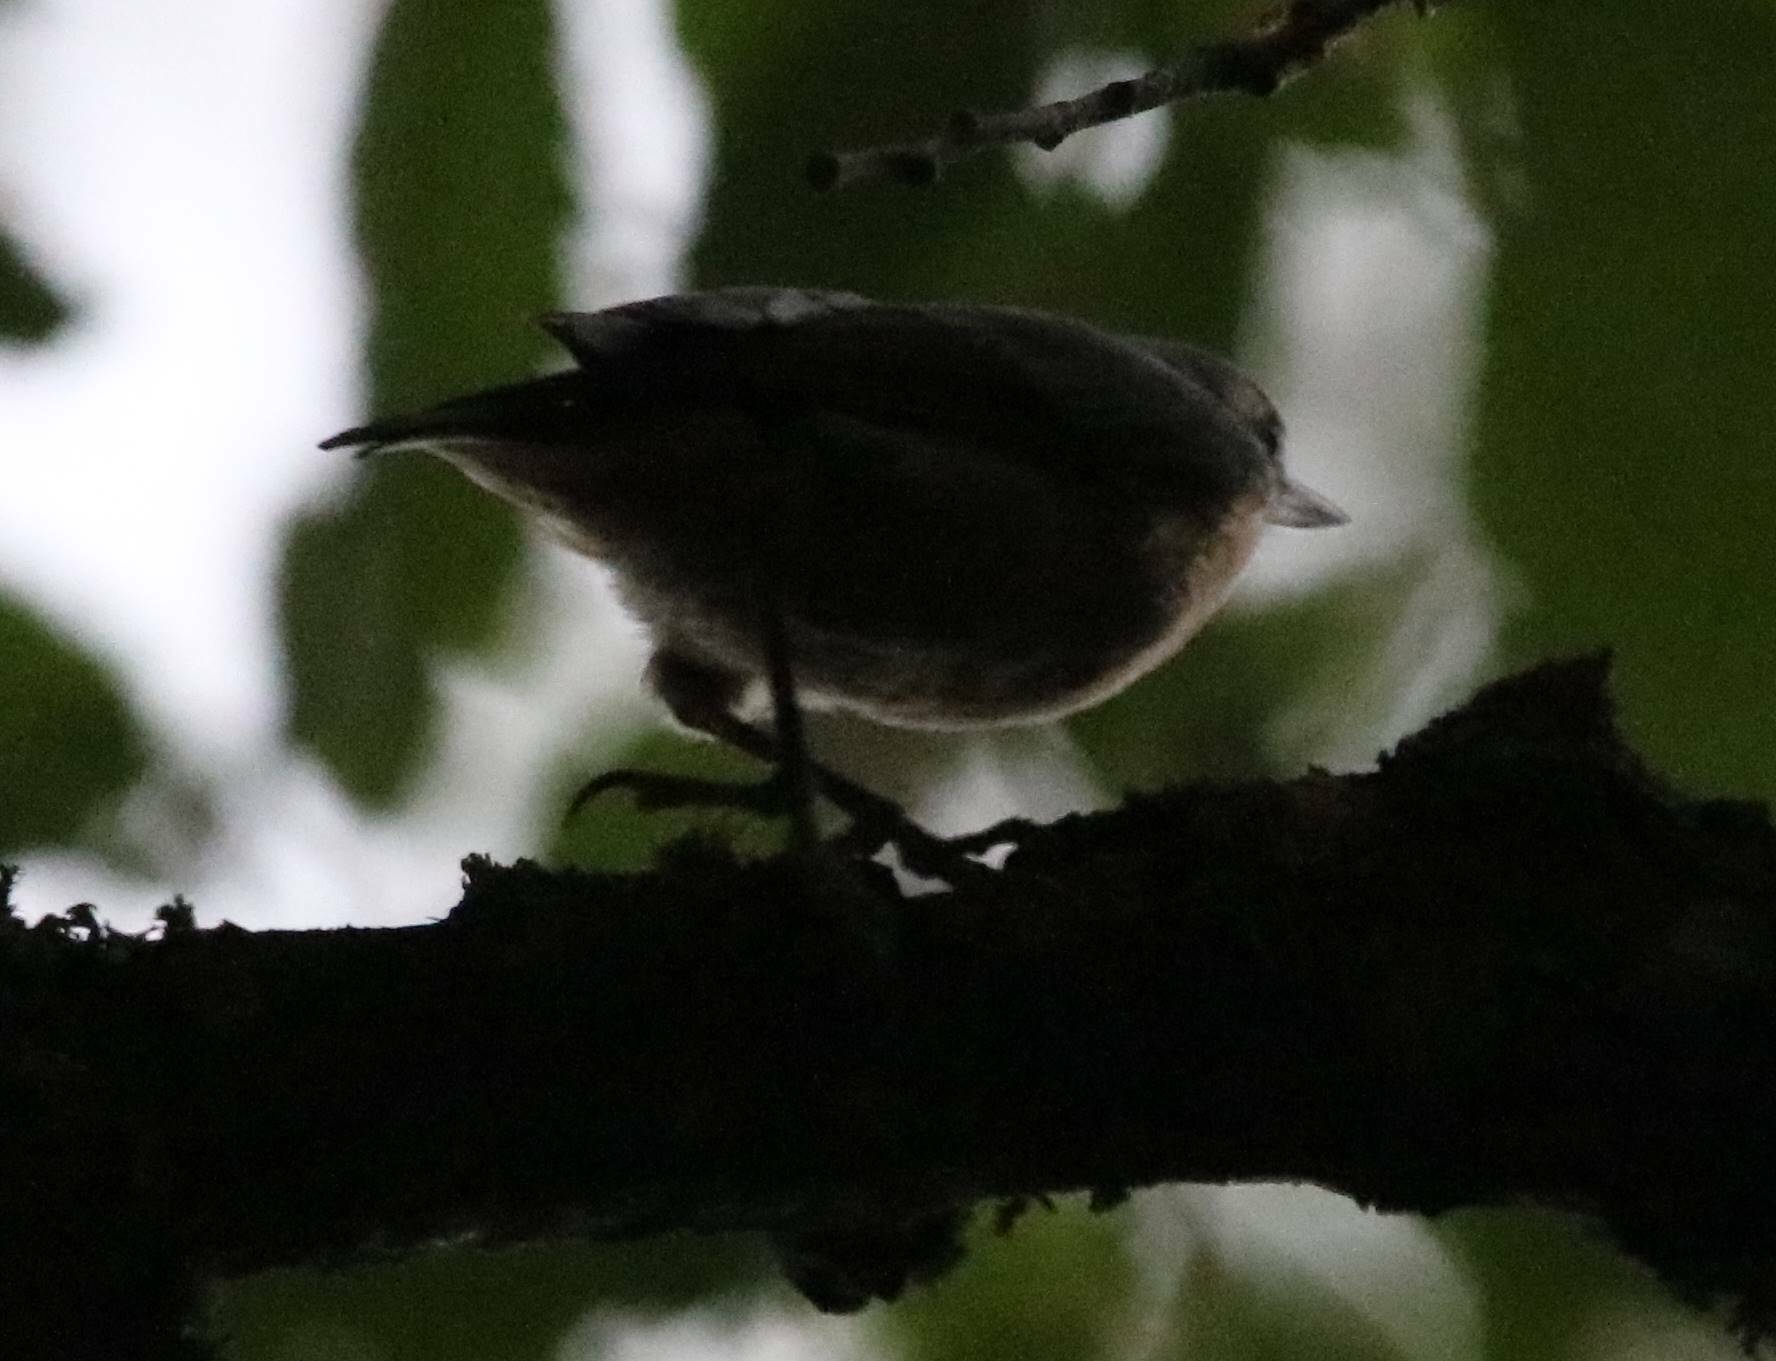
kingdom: Animalia
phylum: Chordata
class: Aves
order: Passeriformes
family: Sittidae
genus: Sitta
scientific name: Sitta ledanti
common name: Algerian nuthatch
